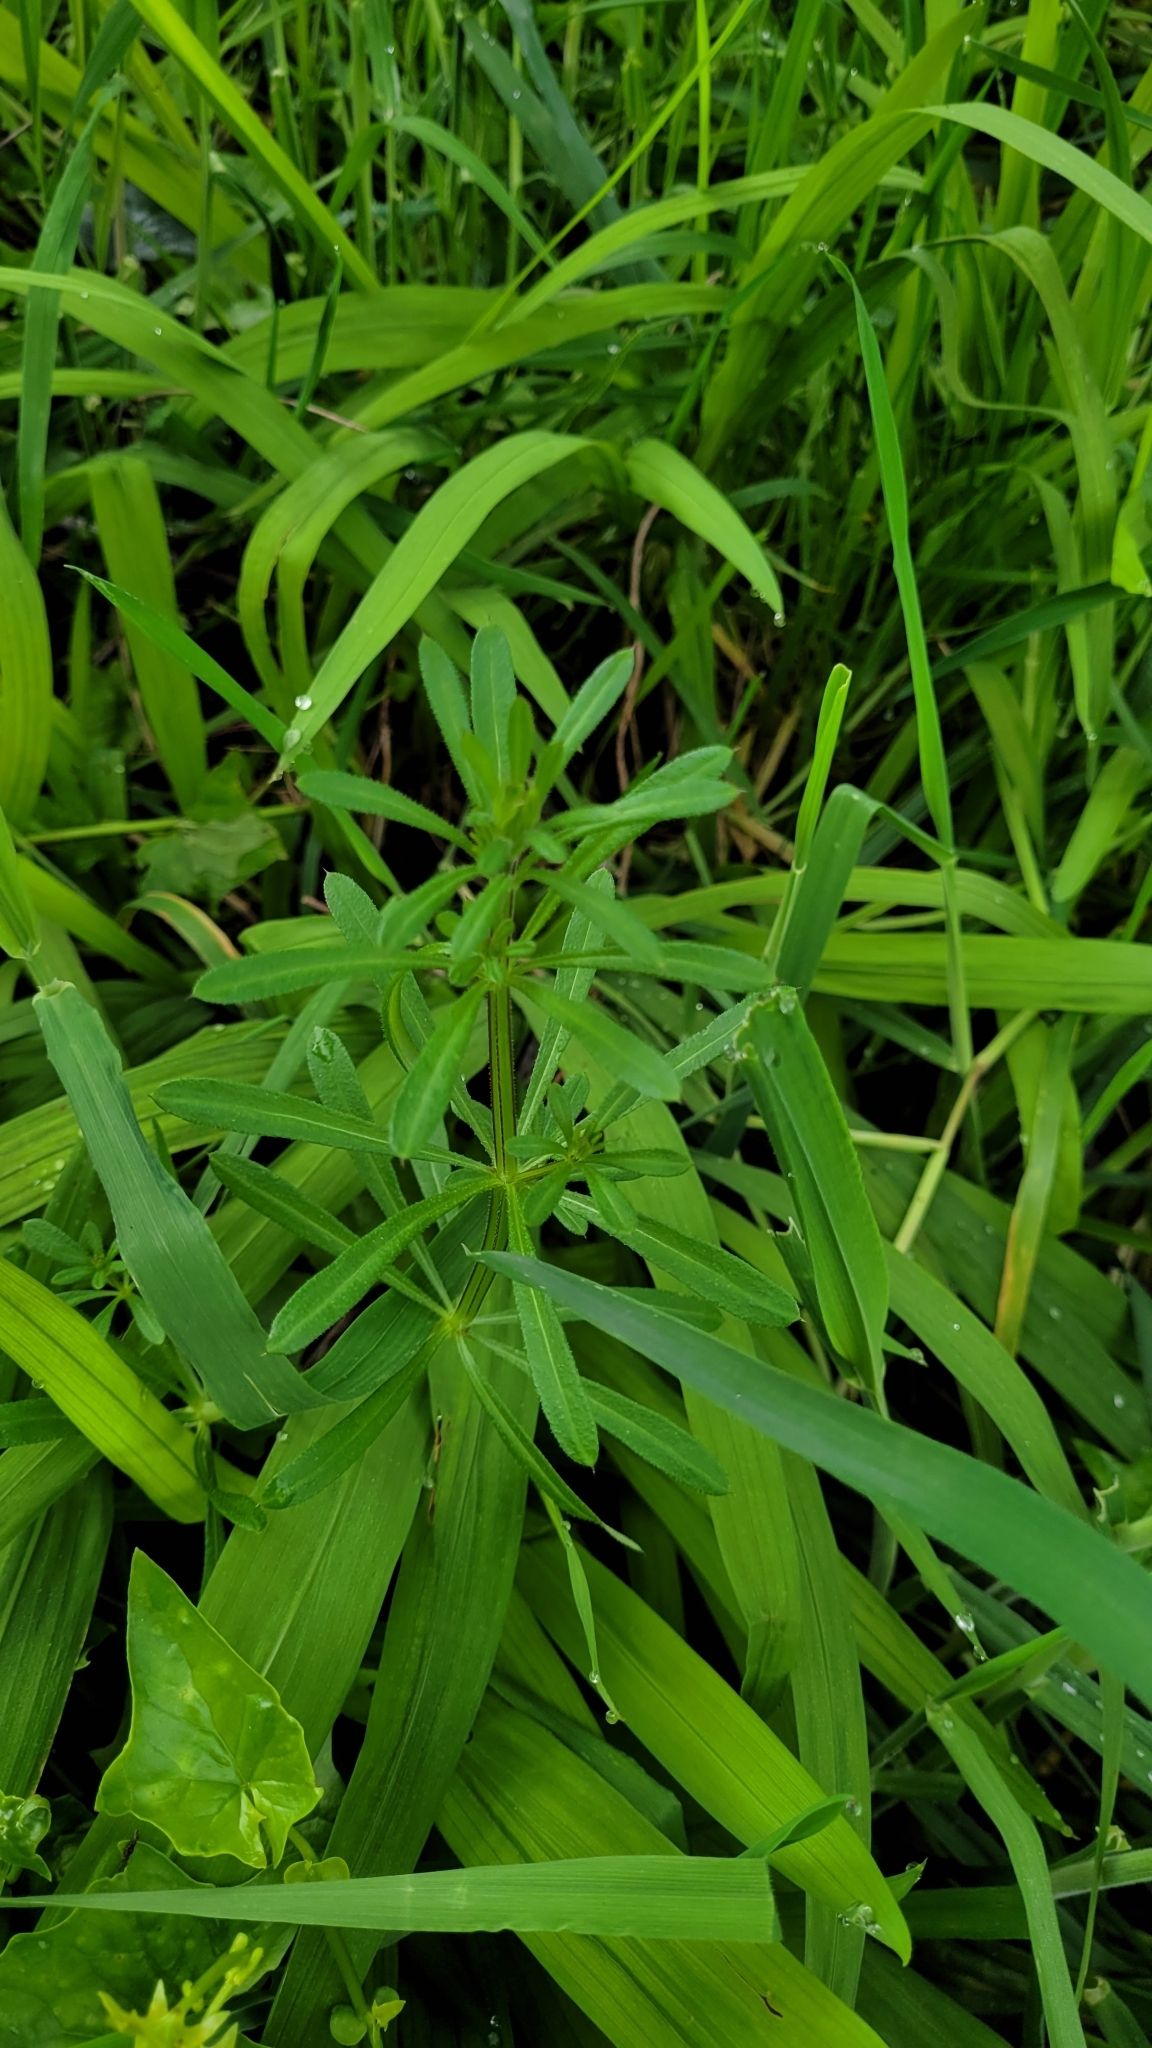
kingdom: Plantae
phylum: Tracheophyta
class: Magnoliopsida
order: Gentianales
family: Rubiaceae
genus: Galium
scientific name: Galium aparine
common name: Cleavers
